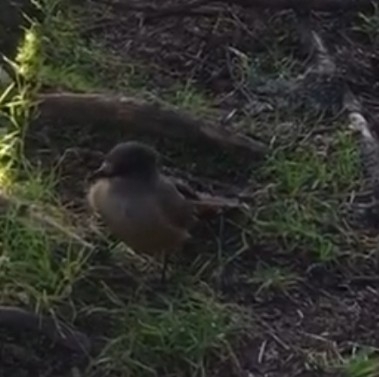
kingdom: Animalia
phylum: Chordata
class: Aves
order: Passeriformes
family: Corvidae
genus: Perisoreus
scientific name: Perisoreus infaustus
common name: Siberian jay
